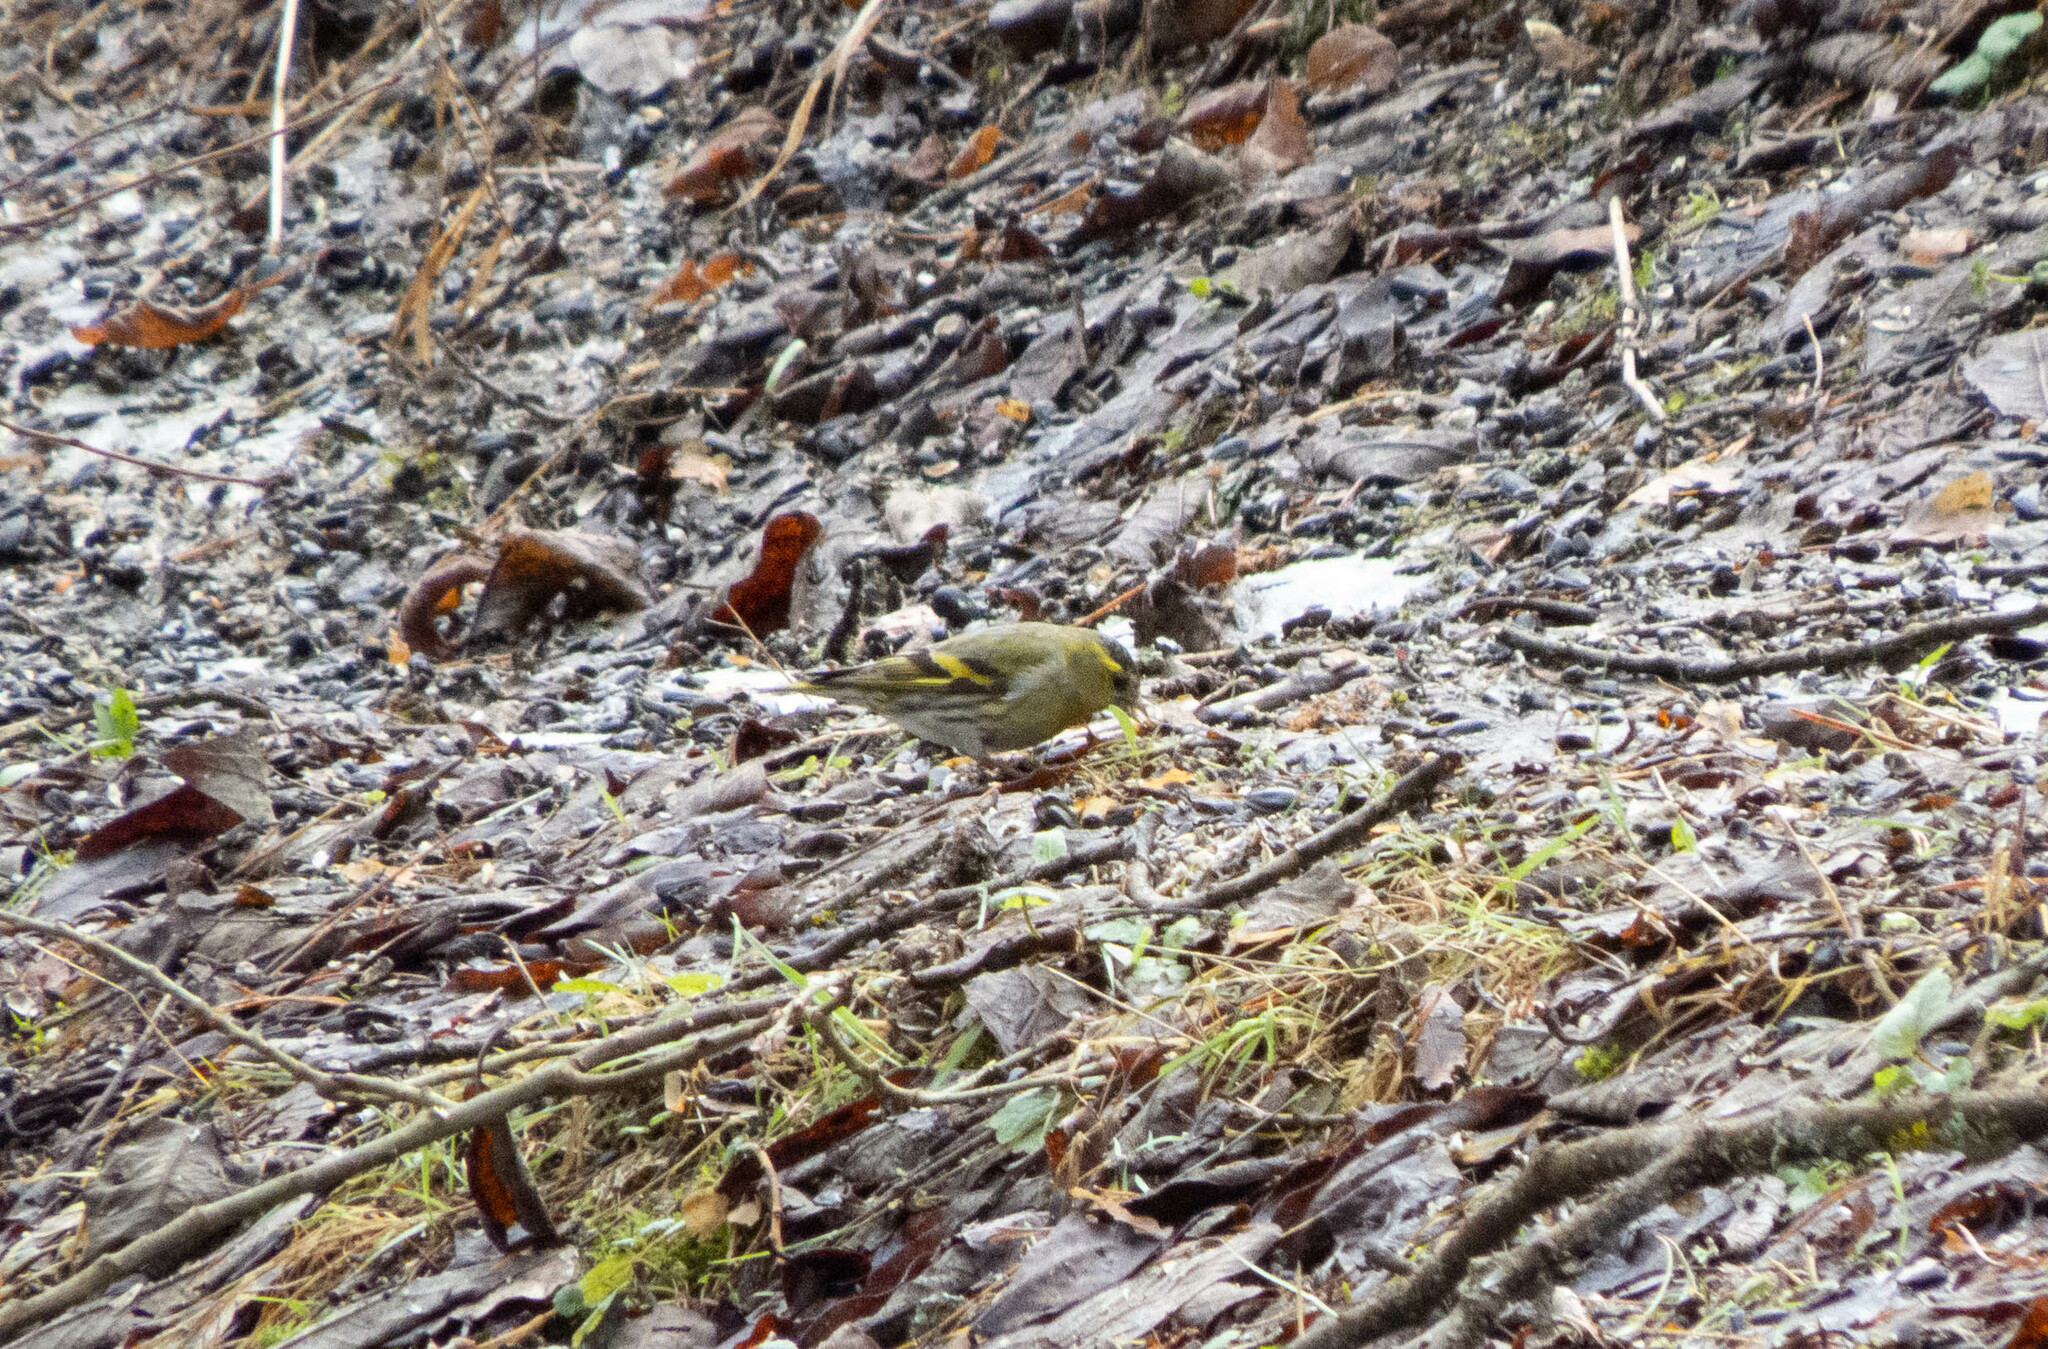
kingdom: Animalia
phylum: Chordata
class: Aves
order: Passeriformes
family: Fringillidae
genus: Spinus
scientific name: Spinus spinus
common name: Eurasian siskin
